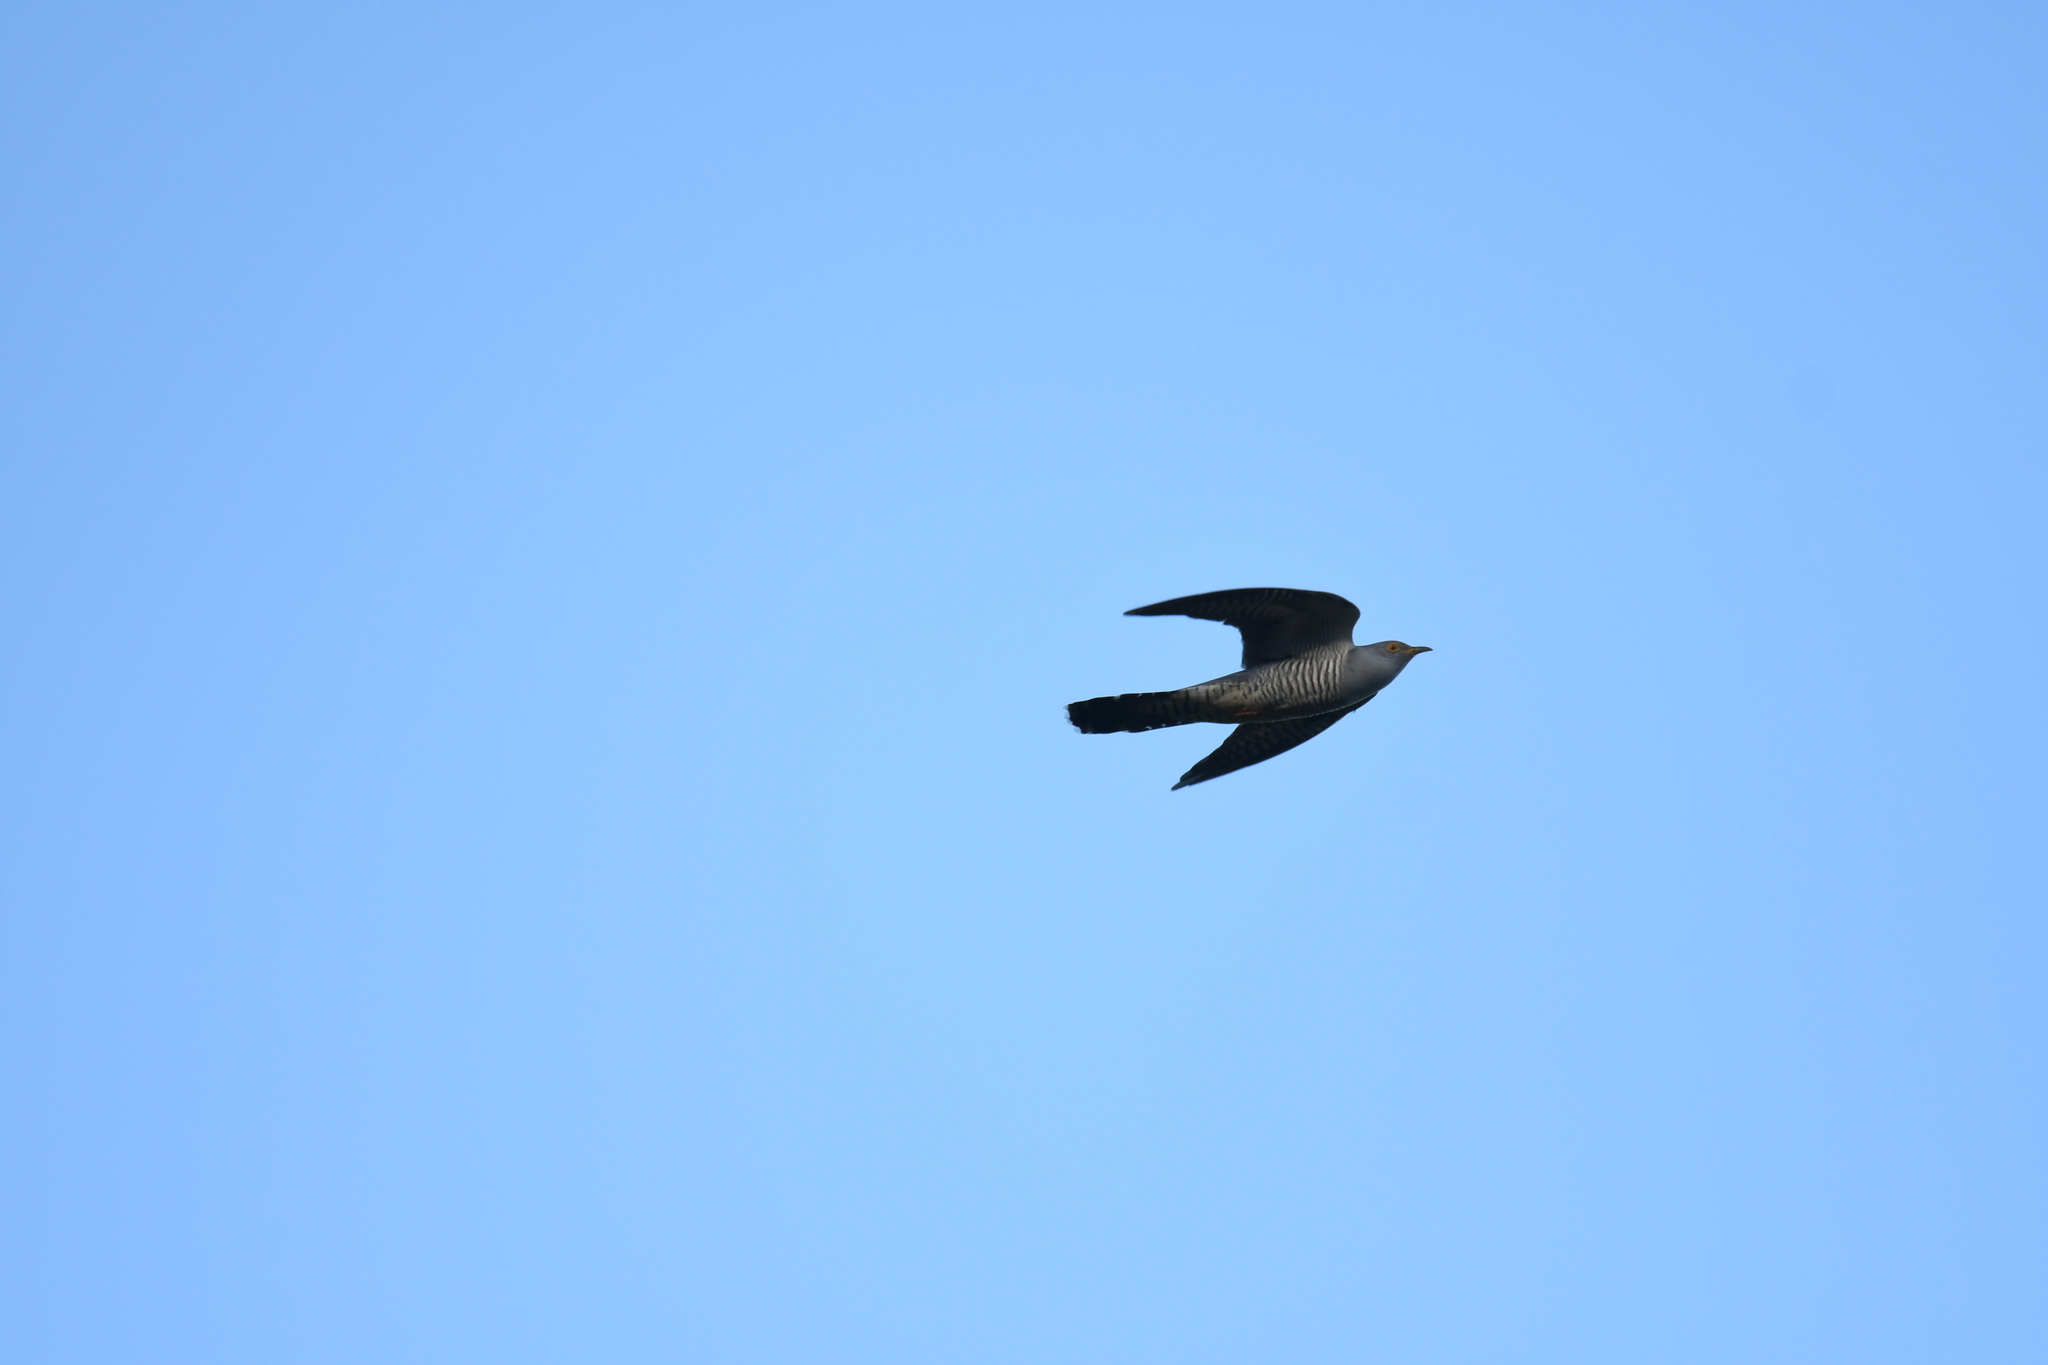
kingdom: Animalia
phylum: Chordata
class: Aves
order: Cuculiformes
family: Cuculidae
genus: Cuculus
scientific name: Cuculus canorus
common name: Common cuckoo
